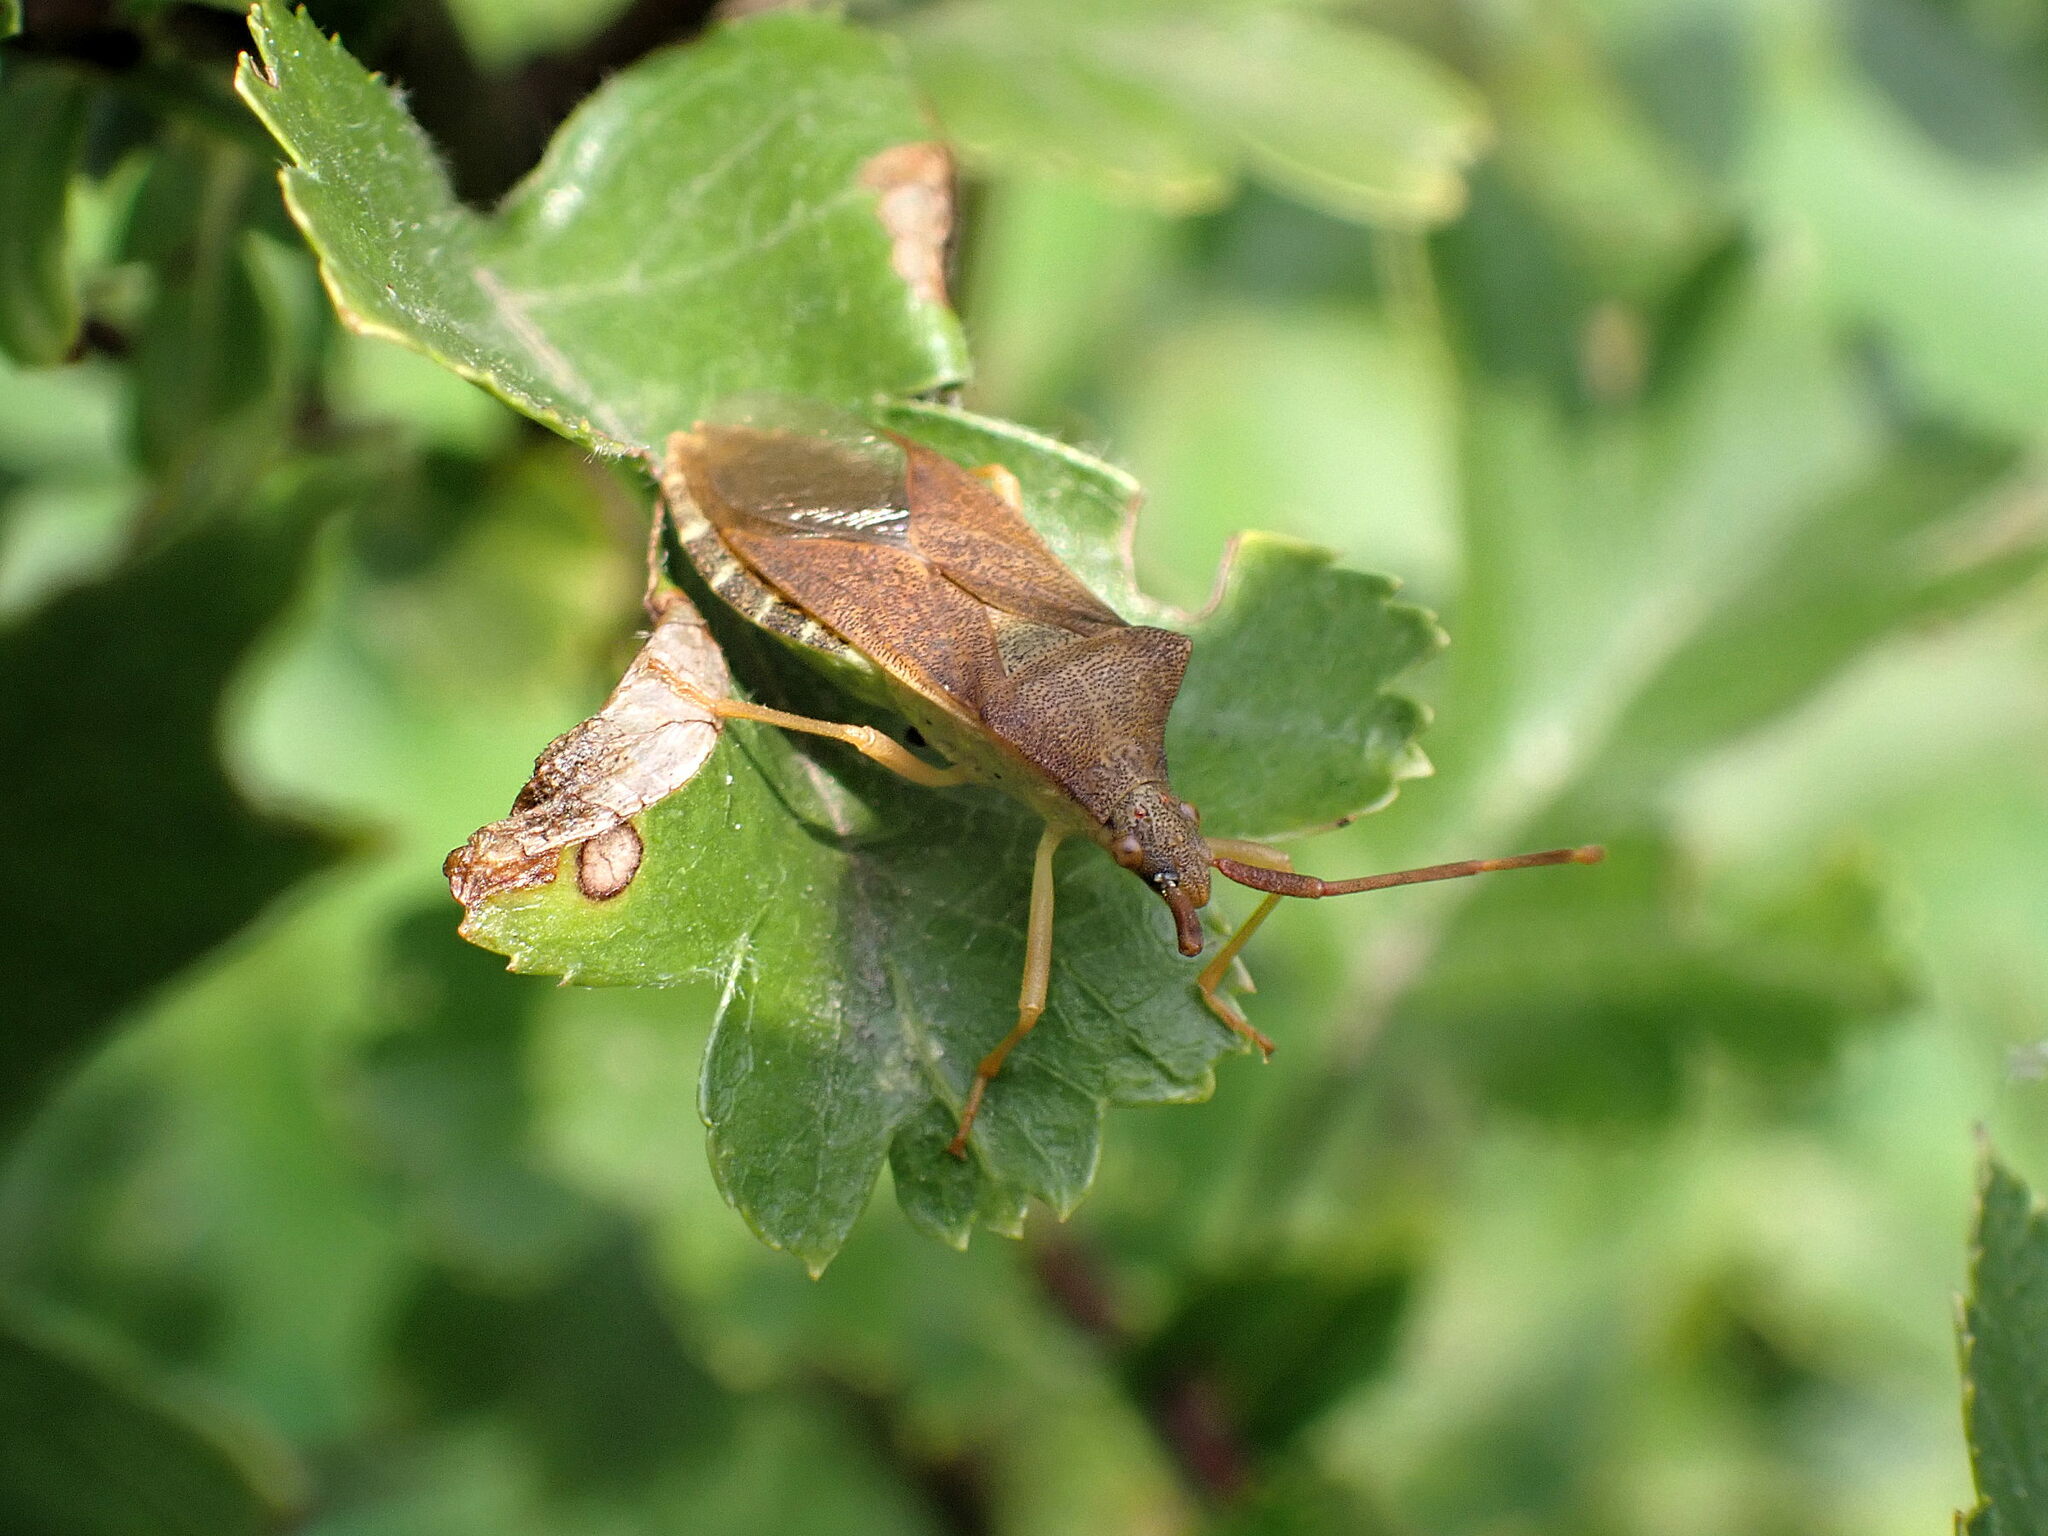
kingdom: Animalia
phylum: Arthropoda
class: Insecta
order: Hemiptera
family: Coreidae
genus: Gonocerus
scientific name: Gonocerus acuteangulatus
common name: Box bug
